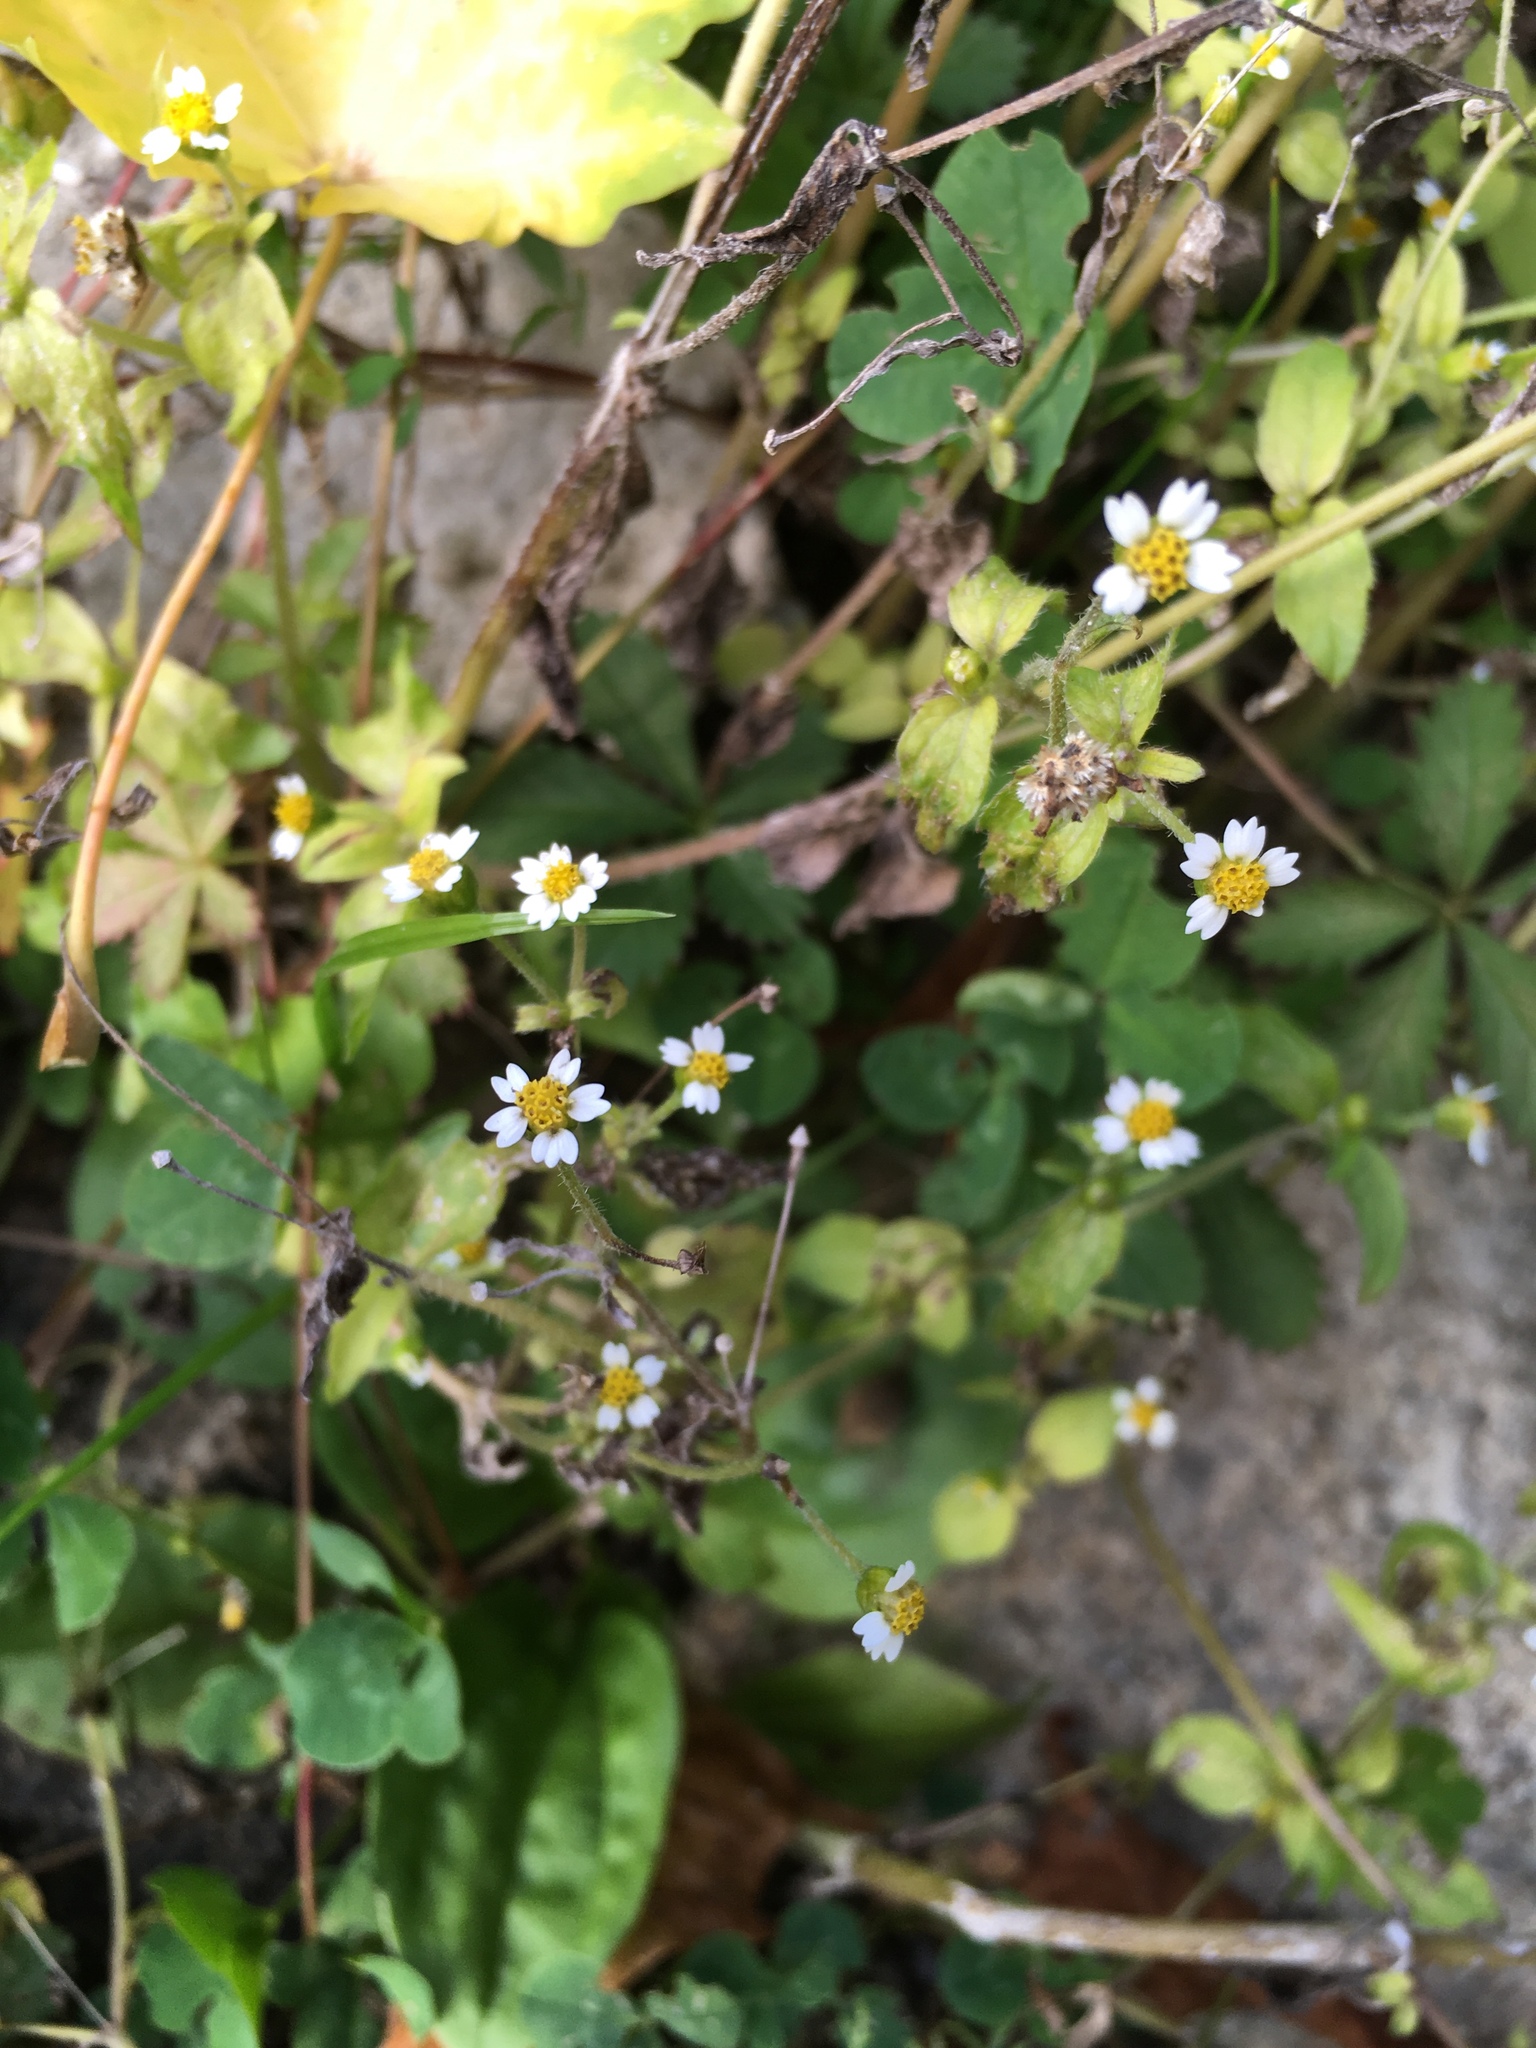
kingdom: Plantae
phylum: Tracheophyta
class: Magnoliopsida
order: Asterales
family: Asteraceae
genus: Galinsoga
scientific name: Galinsoga quadriradiata
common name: Shaggy soldier
